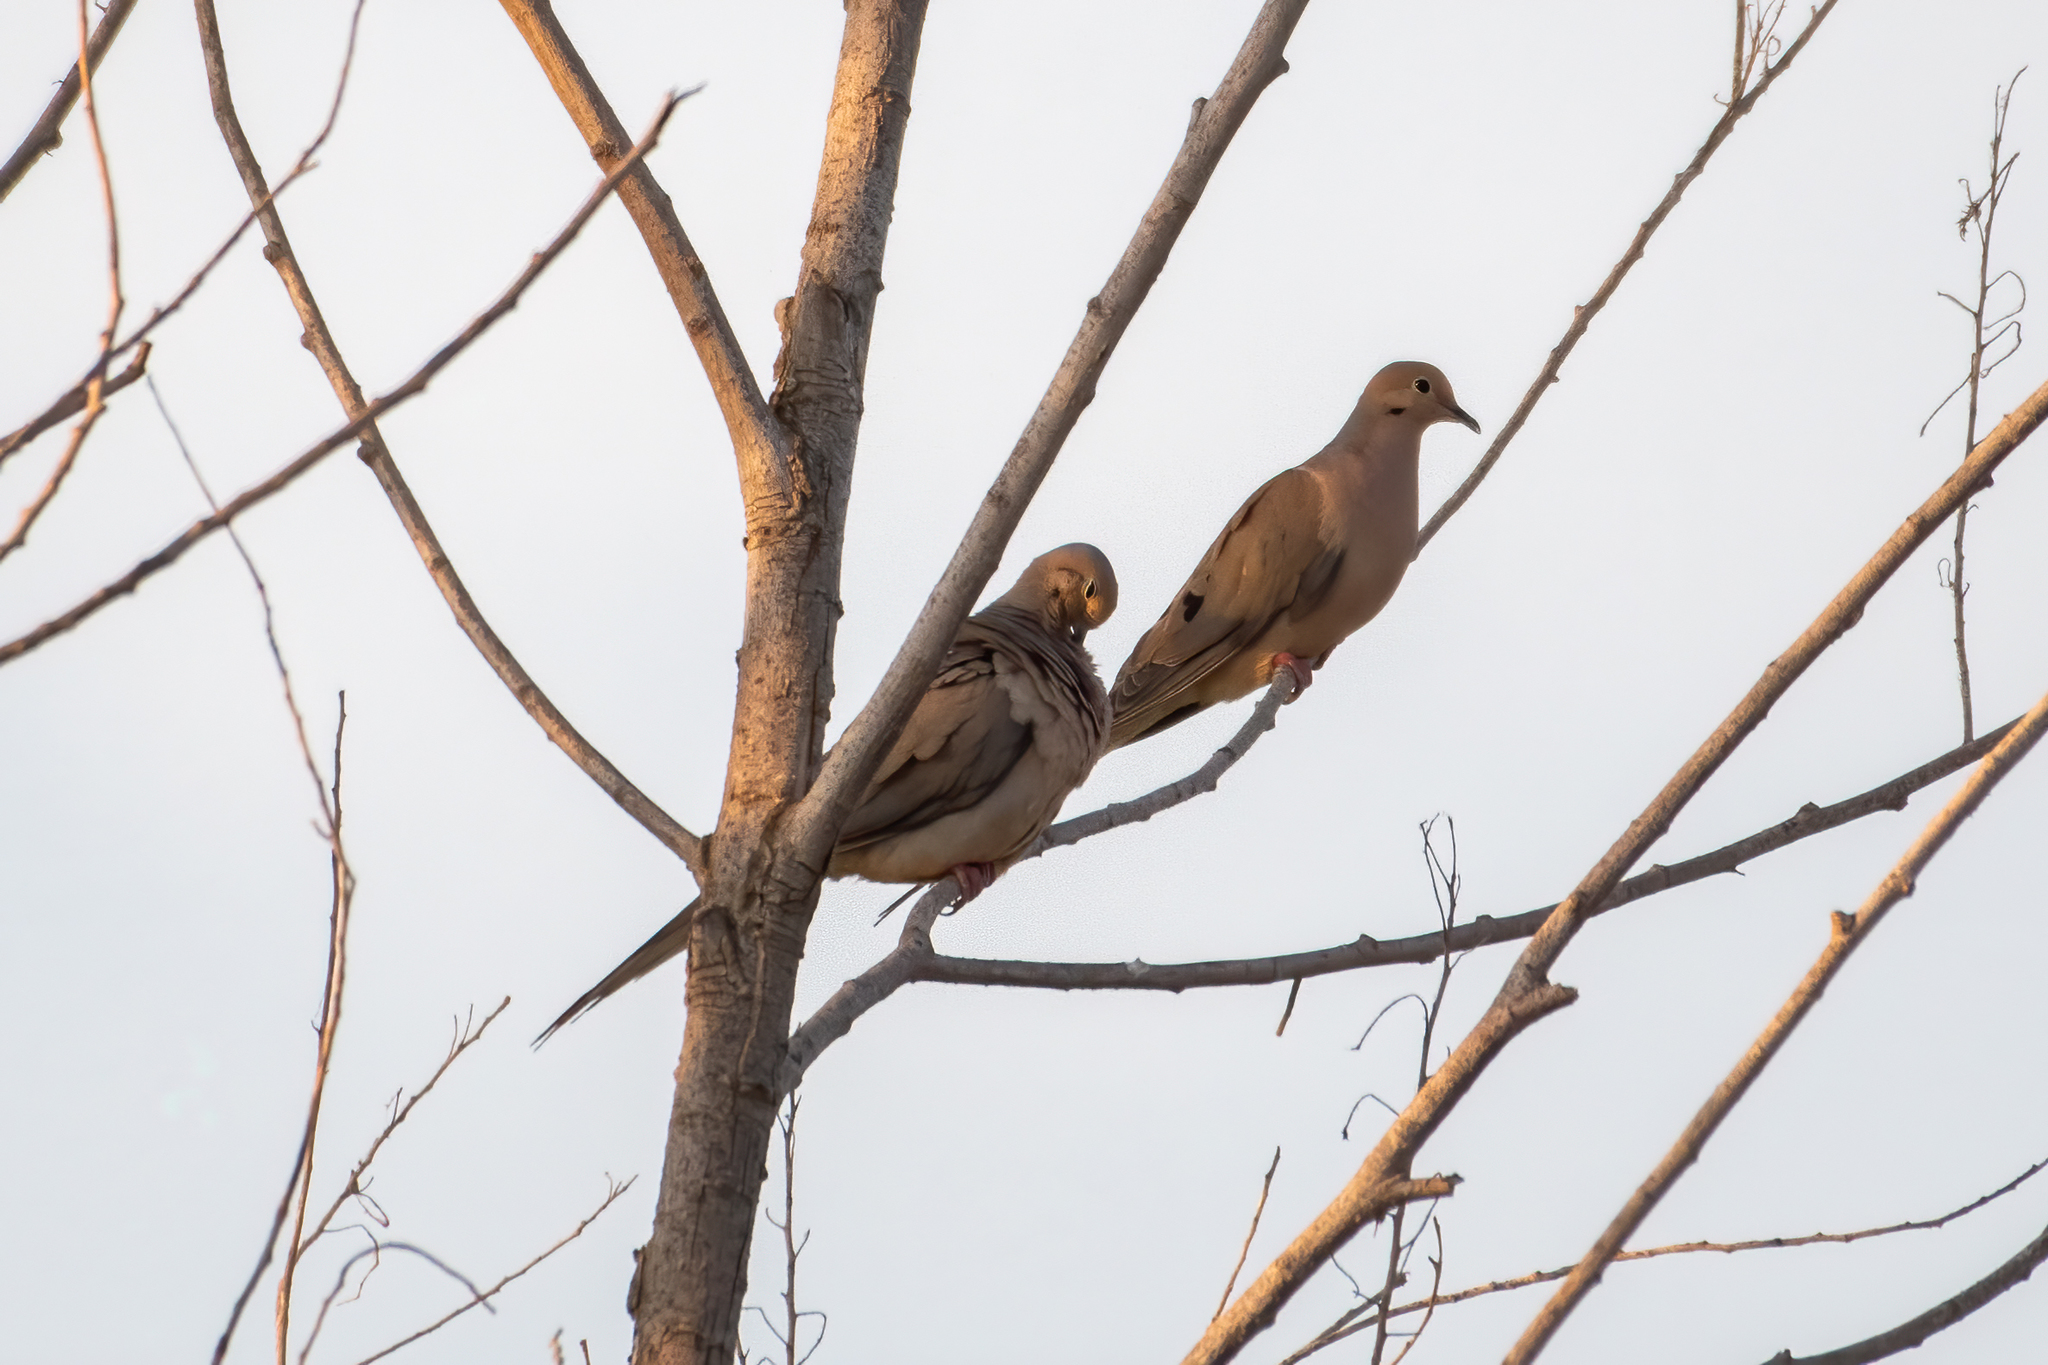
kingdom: Animalia
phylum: Chordata
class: Aves
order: Columbiformes
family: Columbidae
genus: Zenaida
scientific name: Zenaida macroura
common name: Mourning dove
